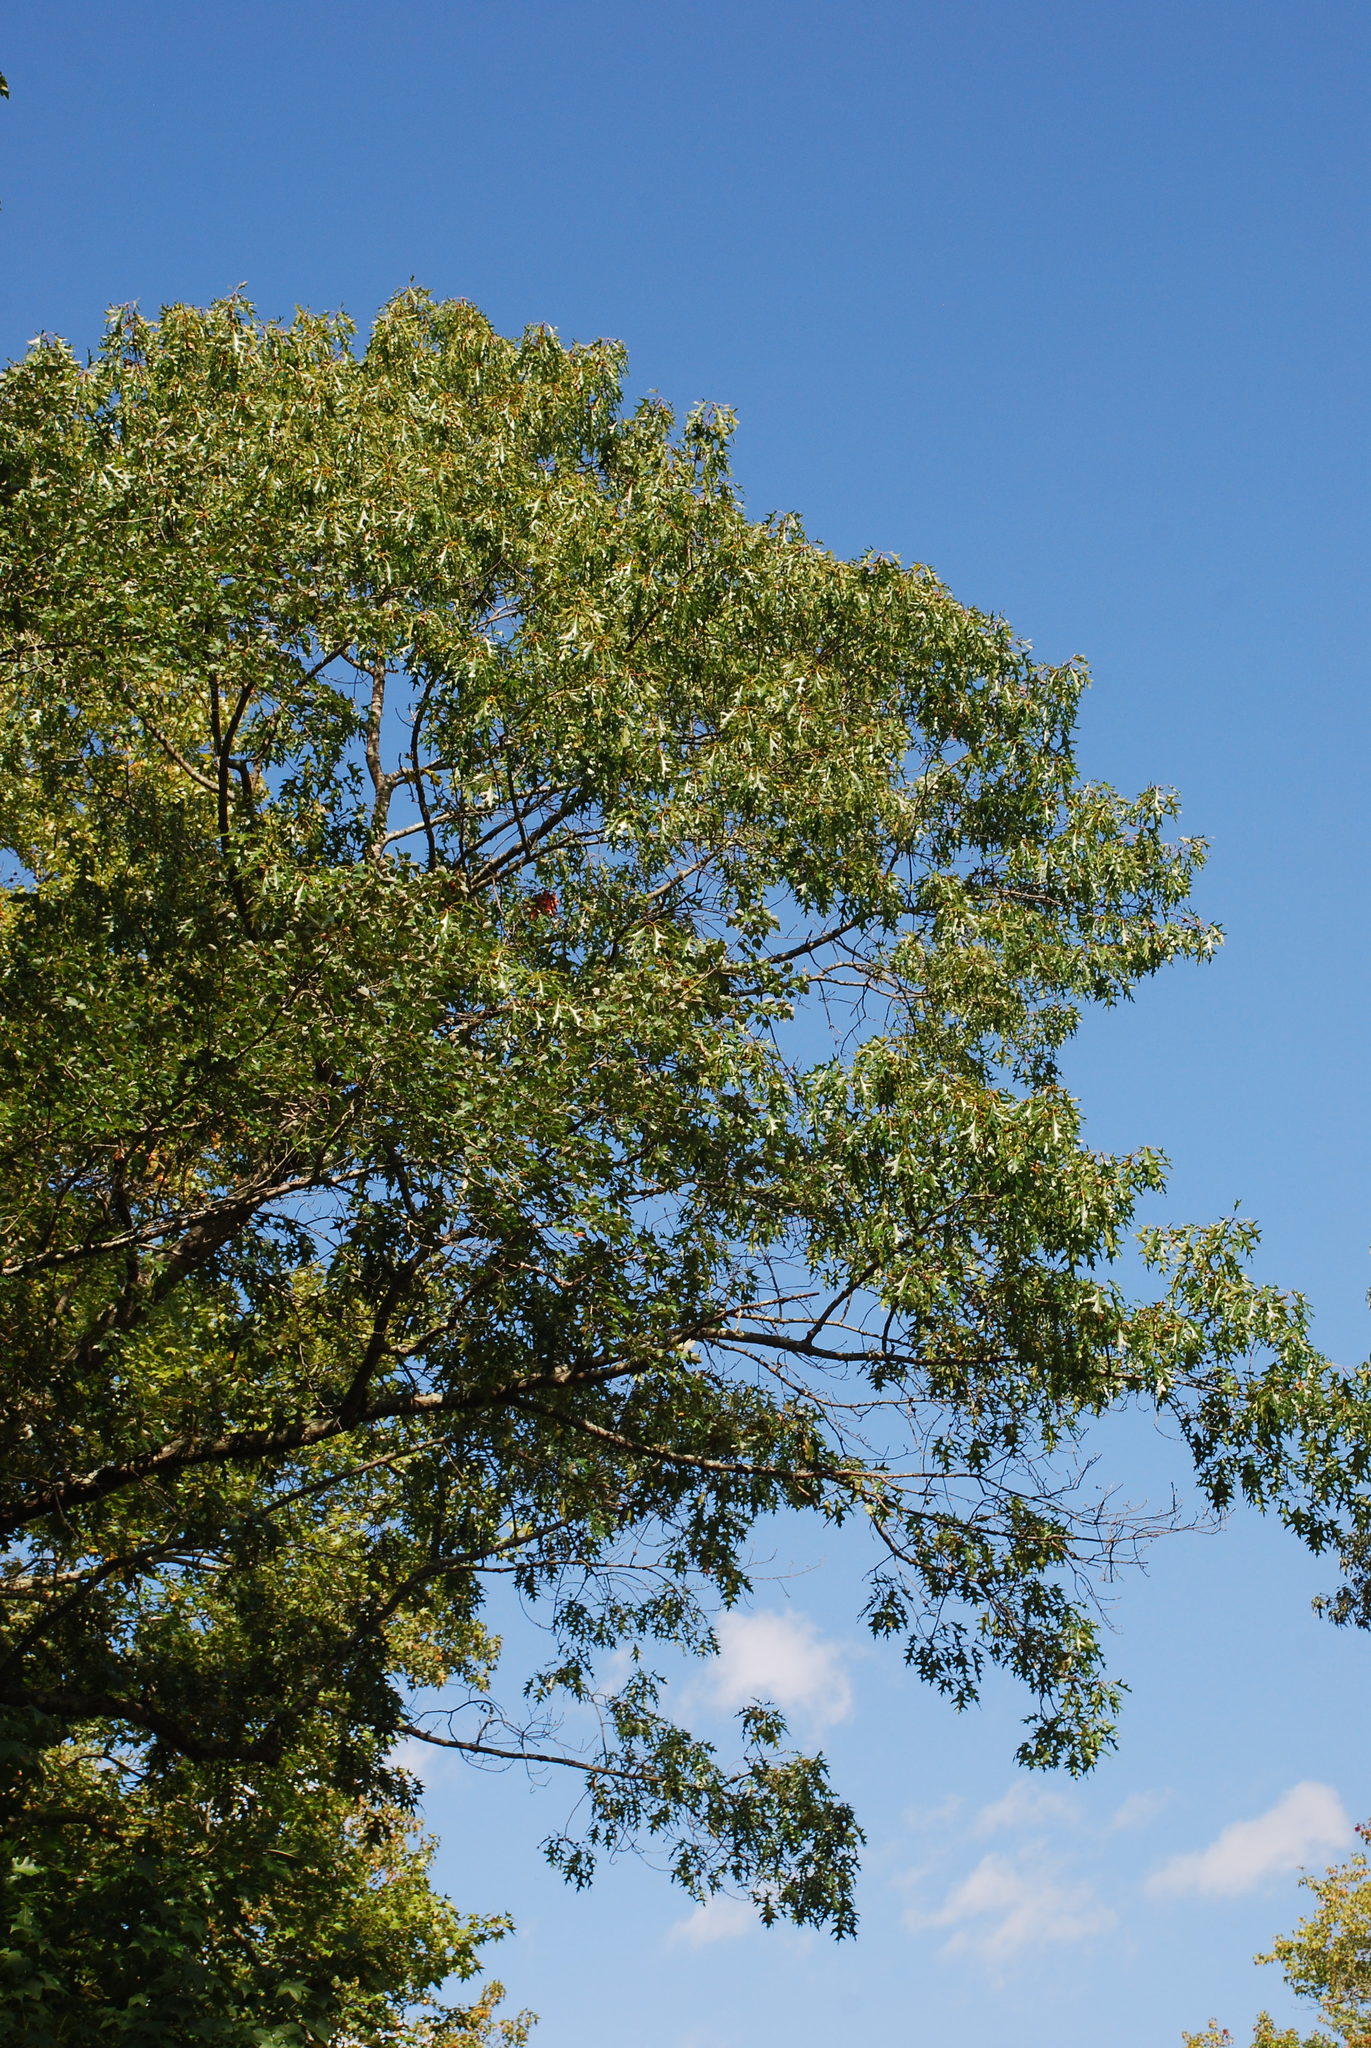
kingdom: Plantae
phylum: Tracheophyta
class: Magnoliopsida
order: Fagales
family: Fagaceae
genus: Quercus
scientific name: Quercus willdenowiana
